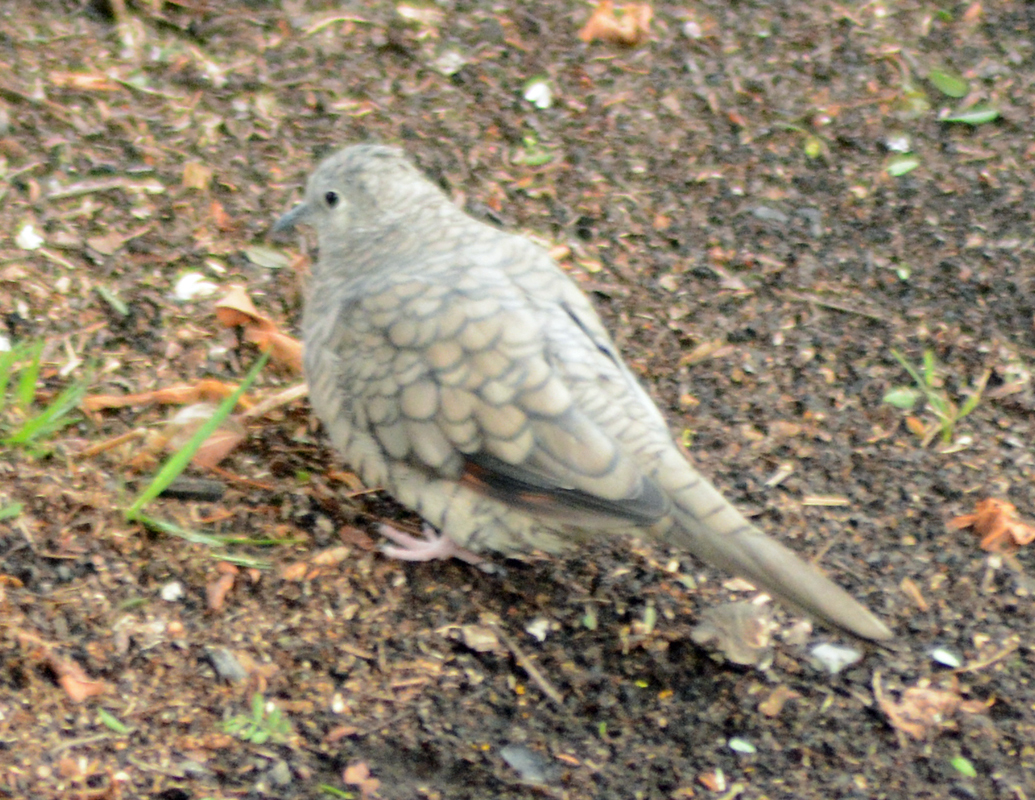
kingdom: Animalia
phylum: Chordata
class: Aves
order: Columbiformes
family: Columbidae
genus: Columbina
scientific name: Columbina inca
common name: Inca dove
